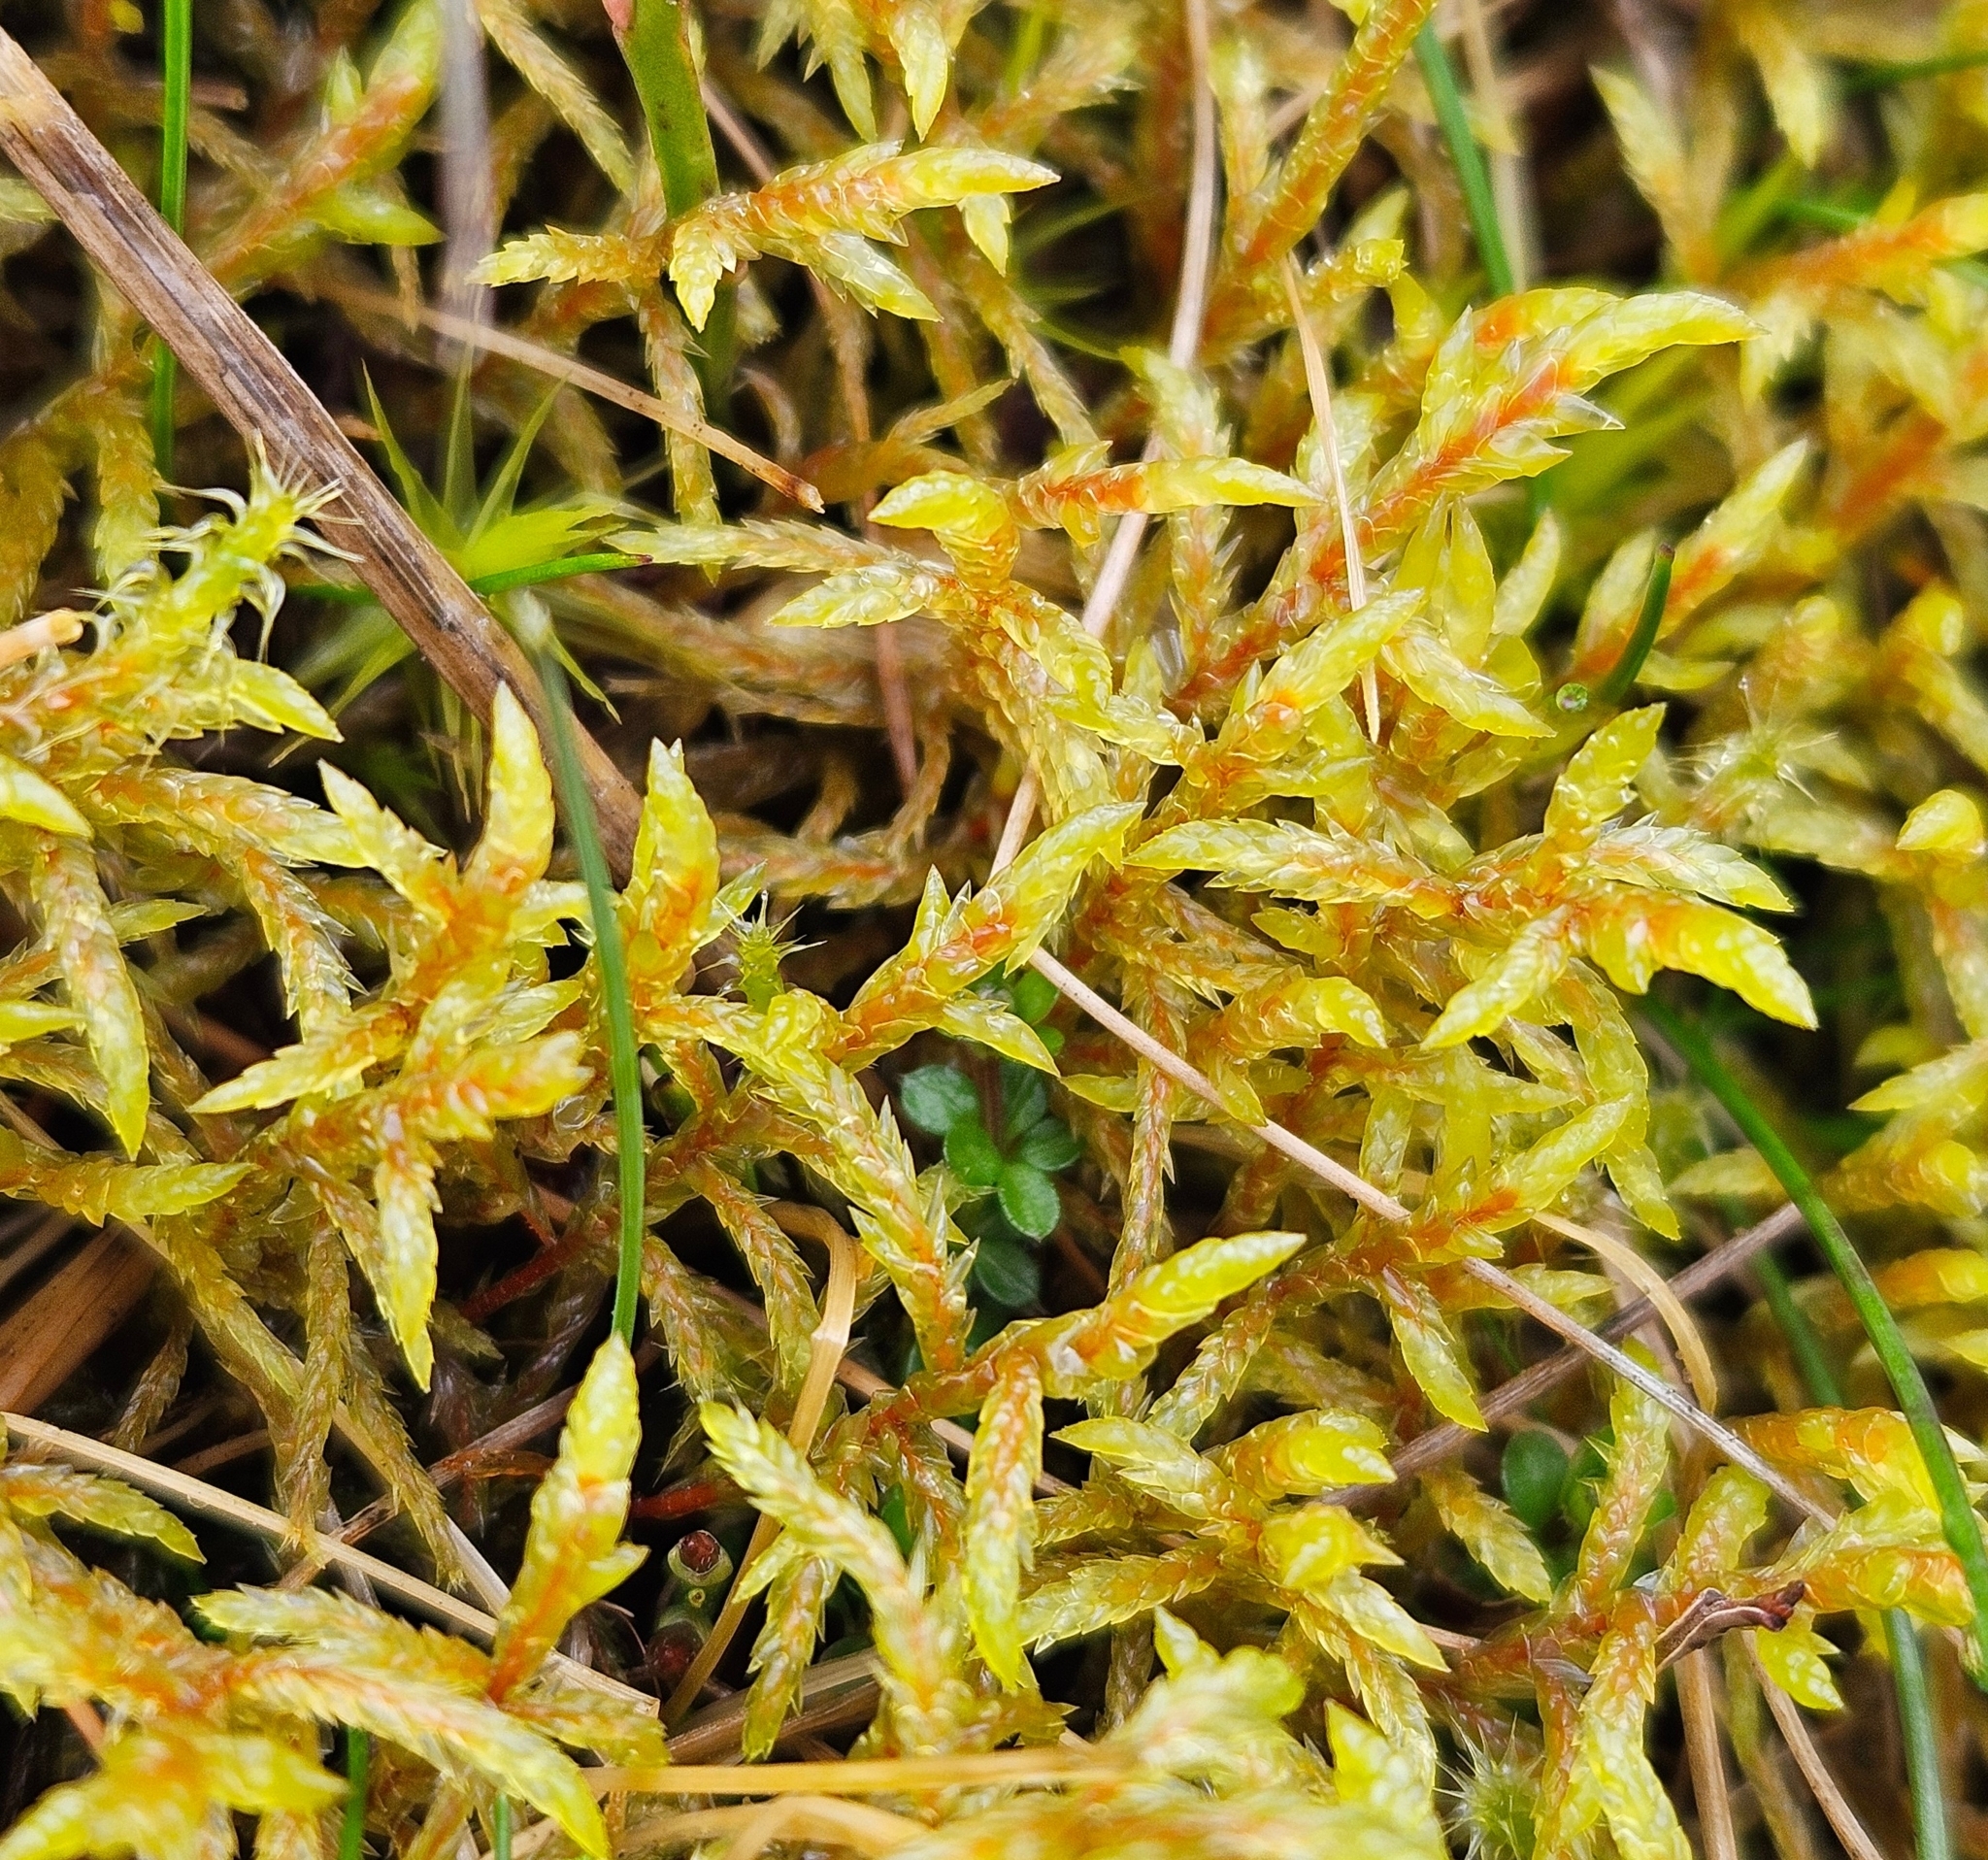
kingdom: Plantae
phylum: Bryophyta
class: Bryopsida
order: Hypnales
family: Hylocomiaceae
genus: Pleurozium
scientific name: Pleurozium schreberi
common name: Red-stemmed feather moss
